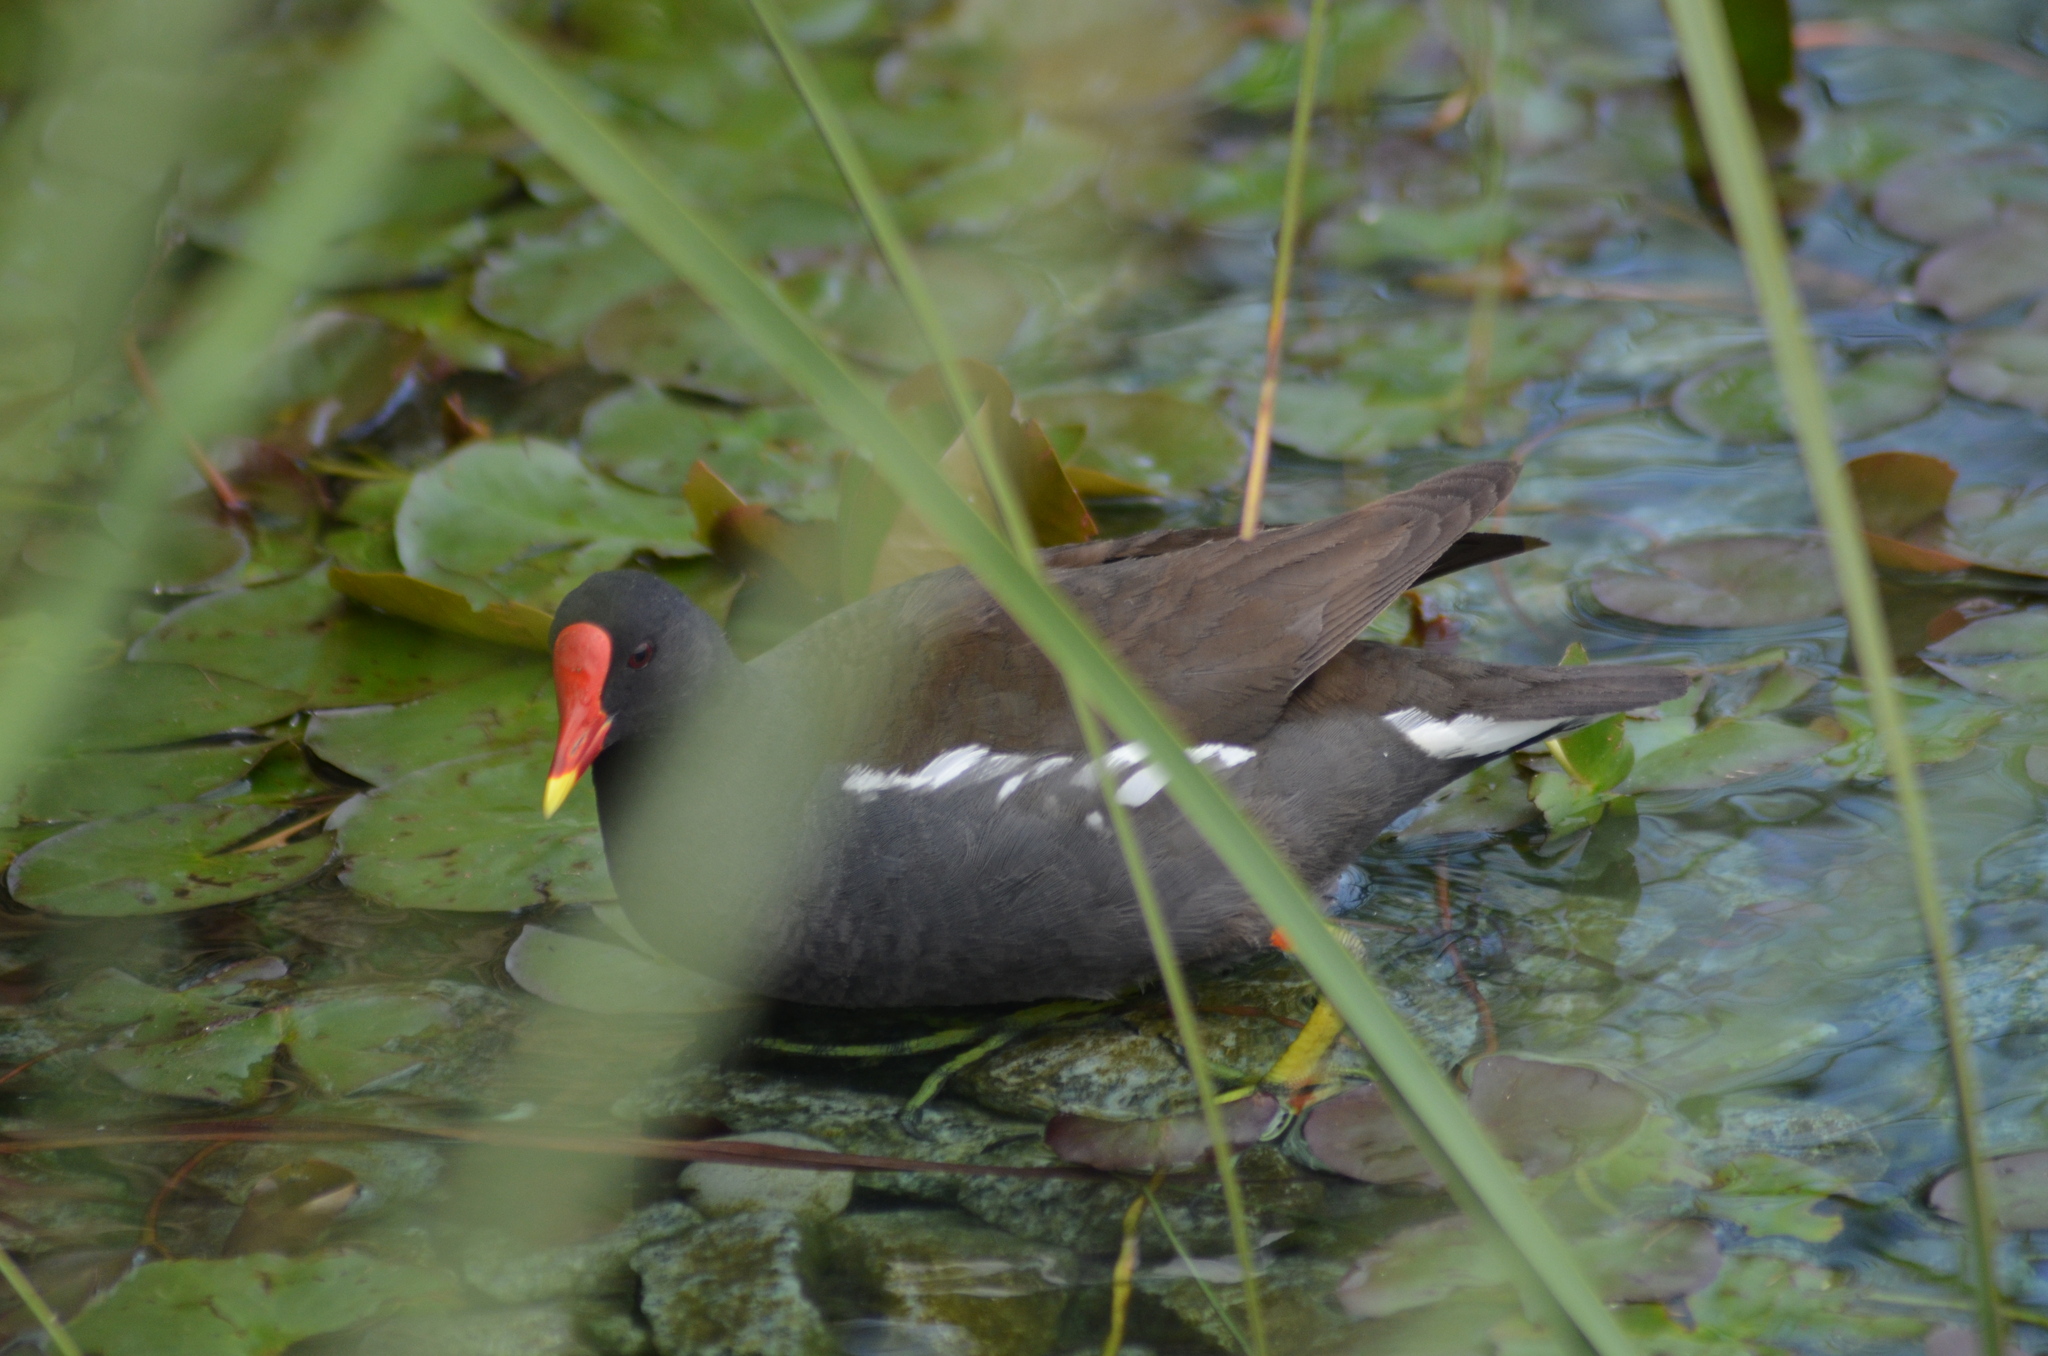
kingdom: Animalia
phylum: Chordata
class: Aves
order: Gruiformes
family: Rallidae
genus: Gallinula
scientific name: Gallinula chloropus
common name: Common moorhen
